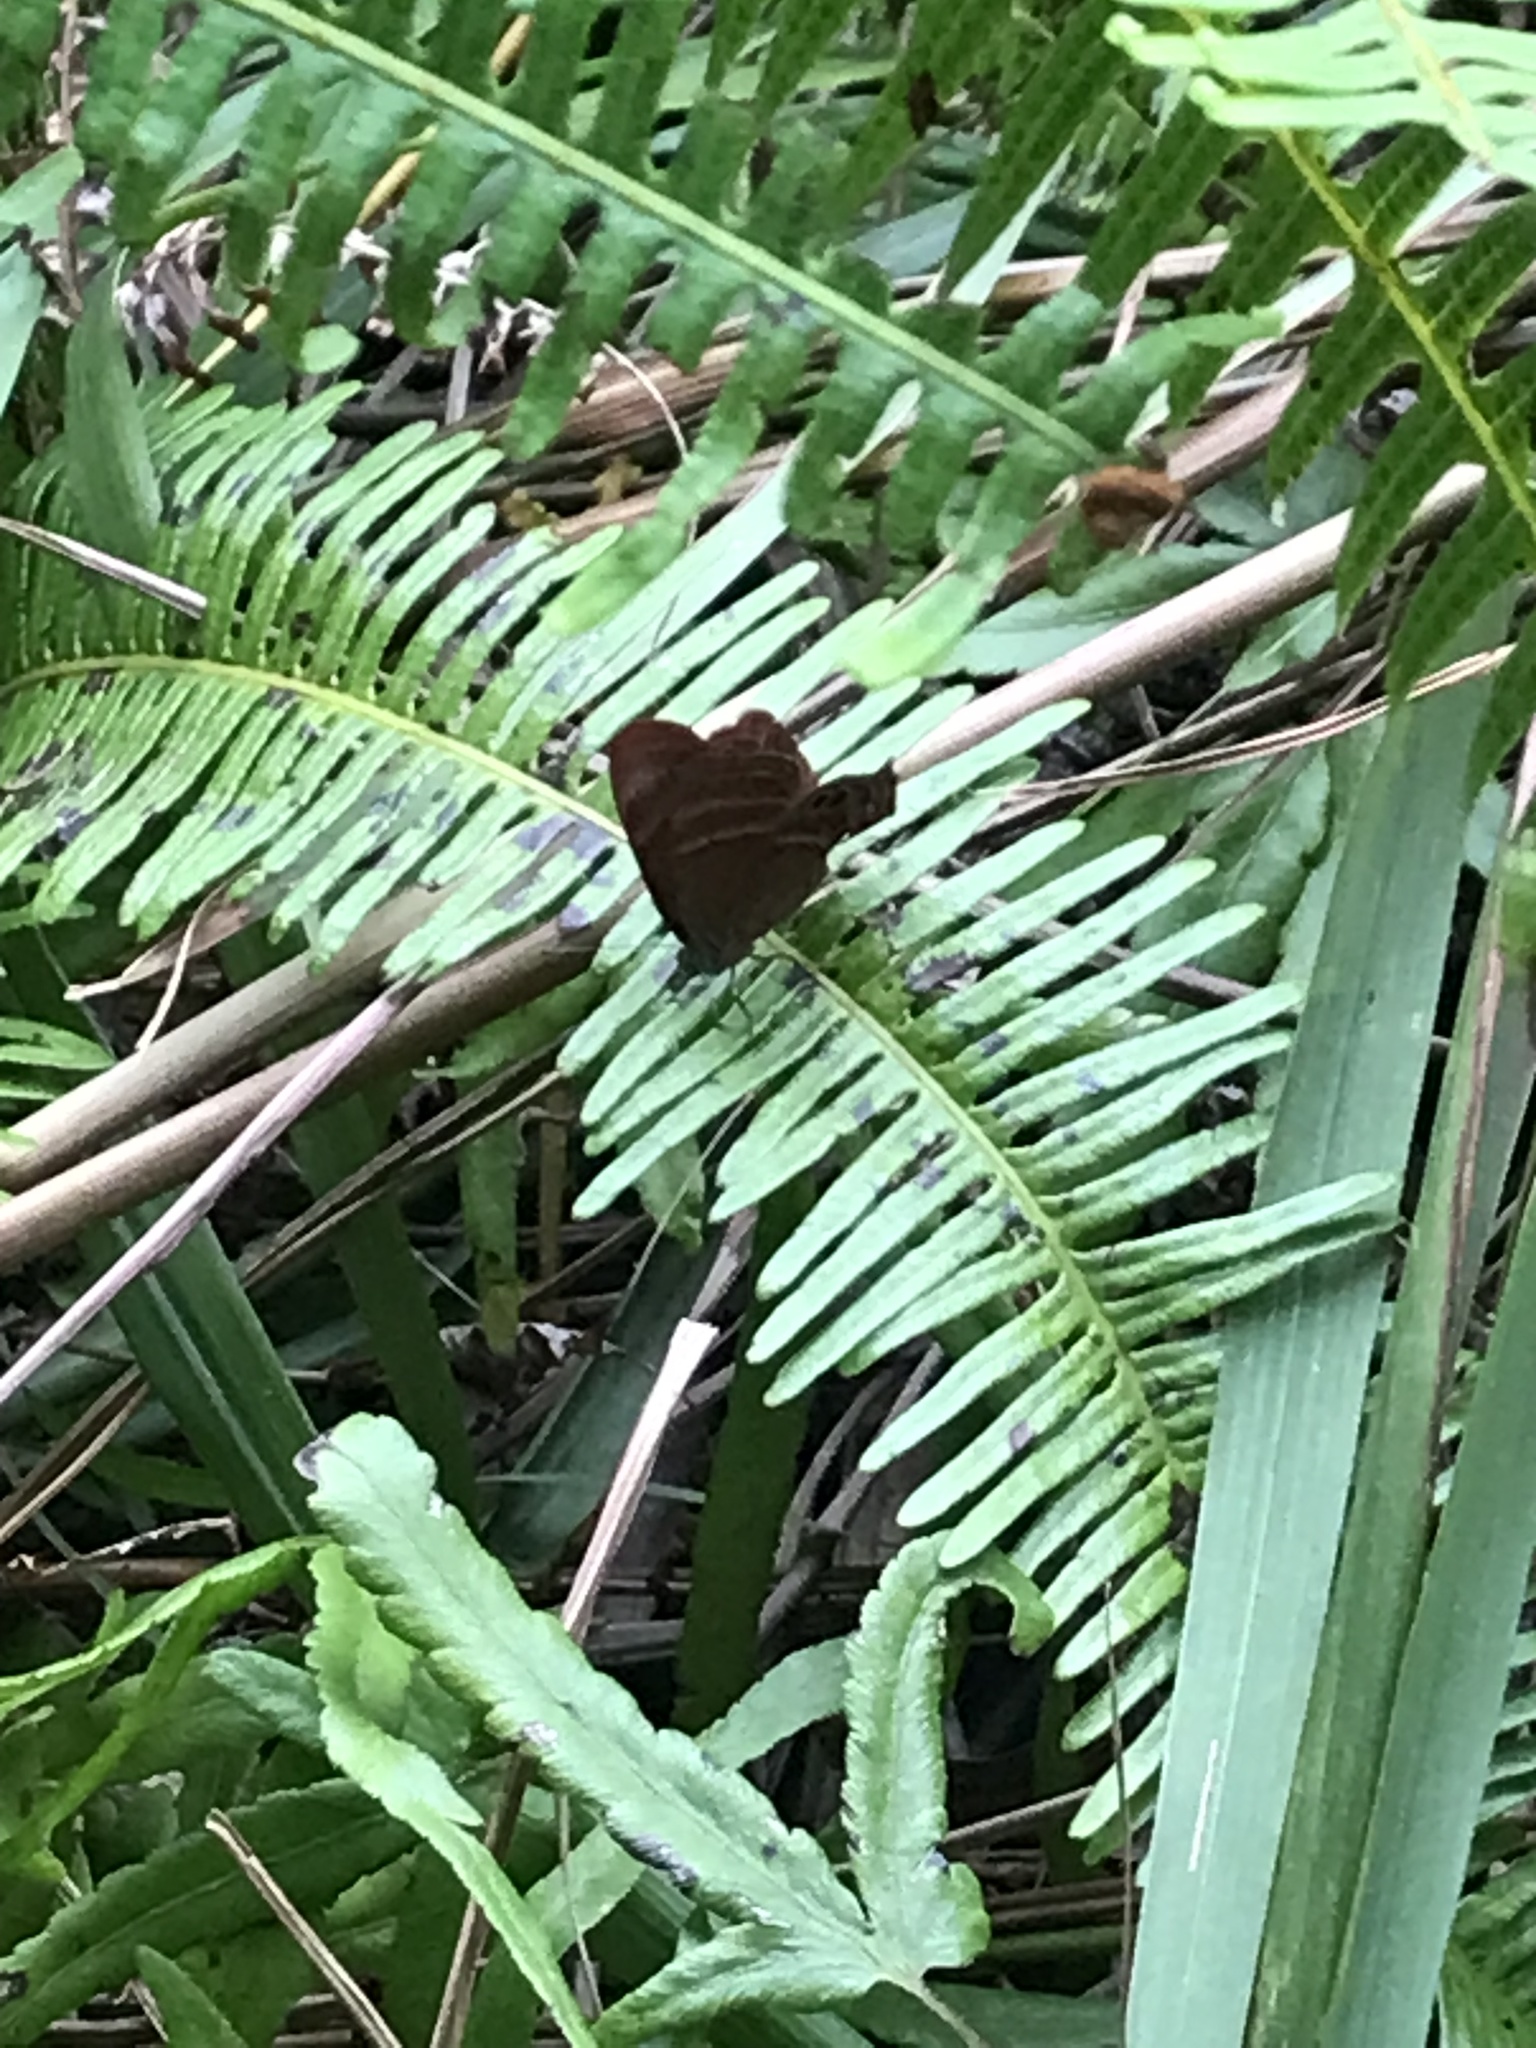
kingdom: Animalia
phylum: Arthropoda
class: Insecta
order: Lepidoptera
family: Lycaenidae
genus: Abisara
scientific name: Abisara echeria
